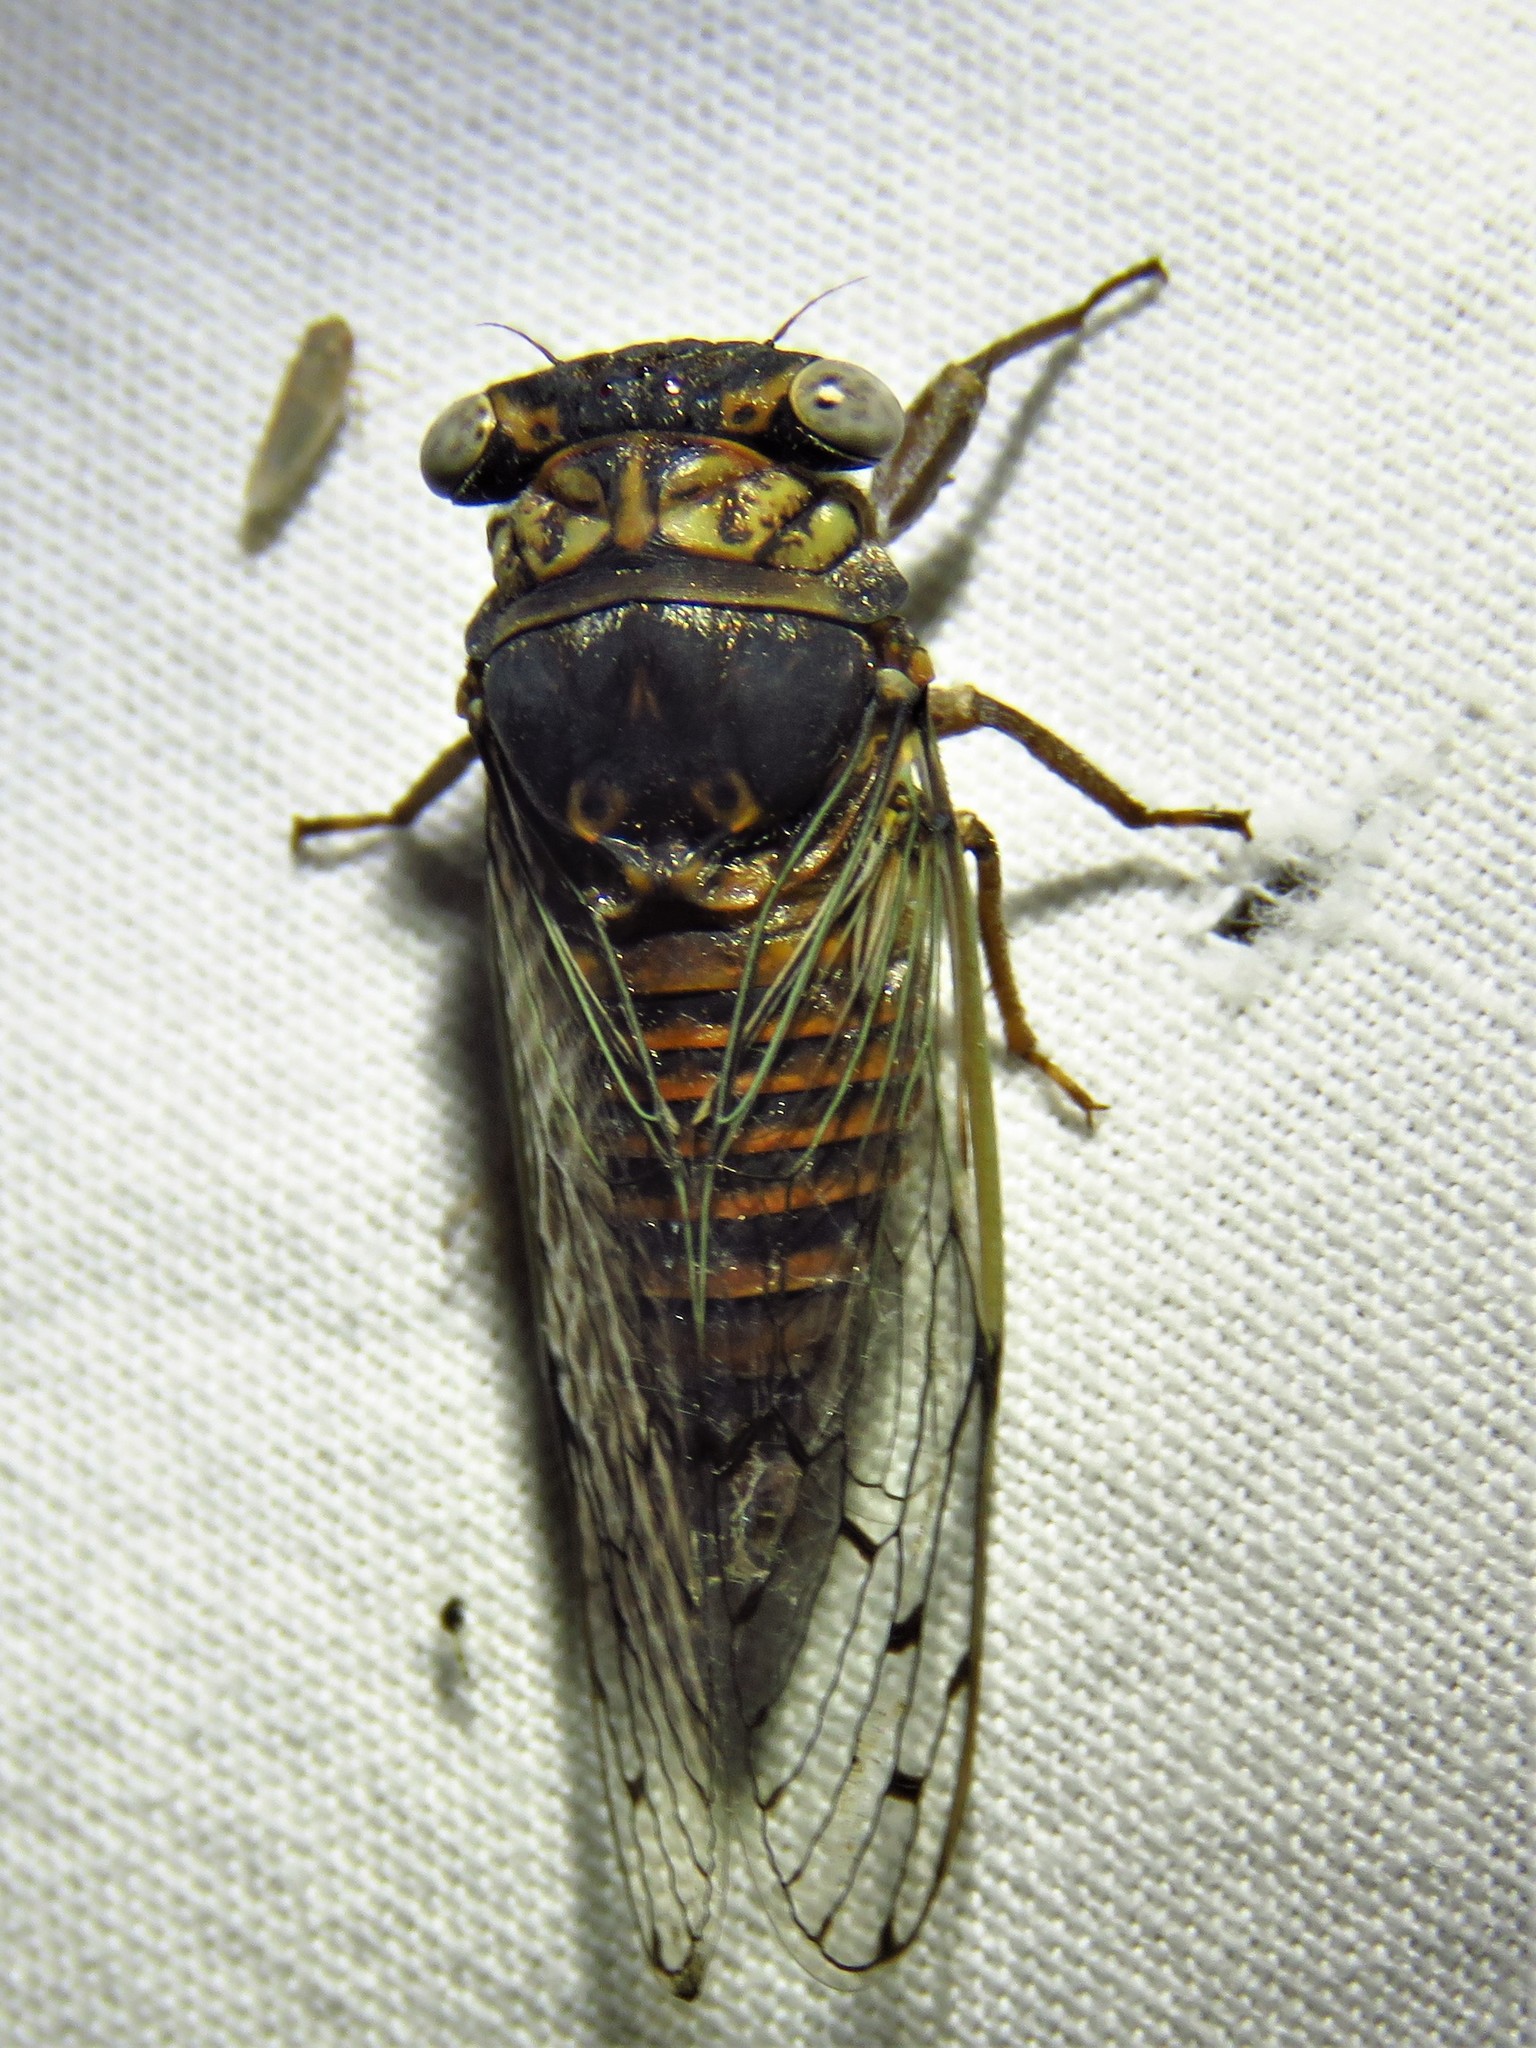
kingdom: Animalia
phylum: Arthropoda
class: Insecta
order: Hemiptera
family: Cicadidae
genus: Pacarina
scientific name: Pacarina puella
